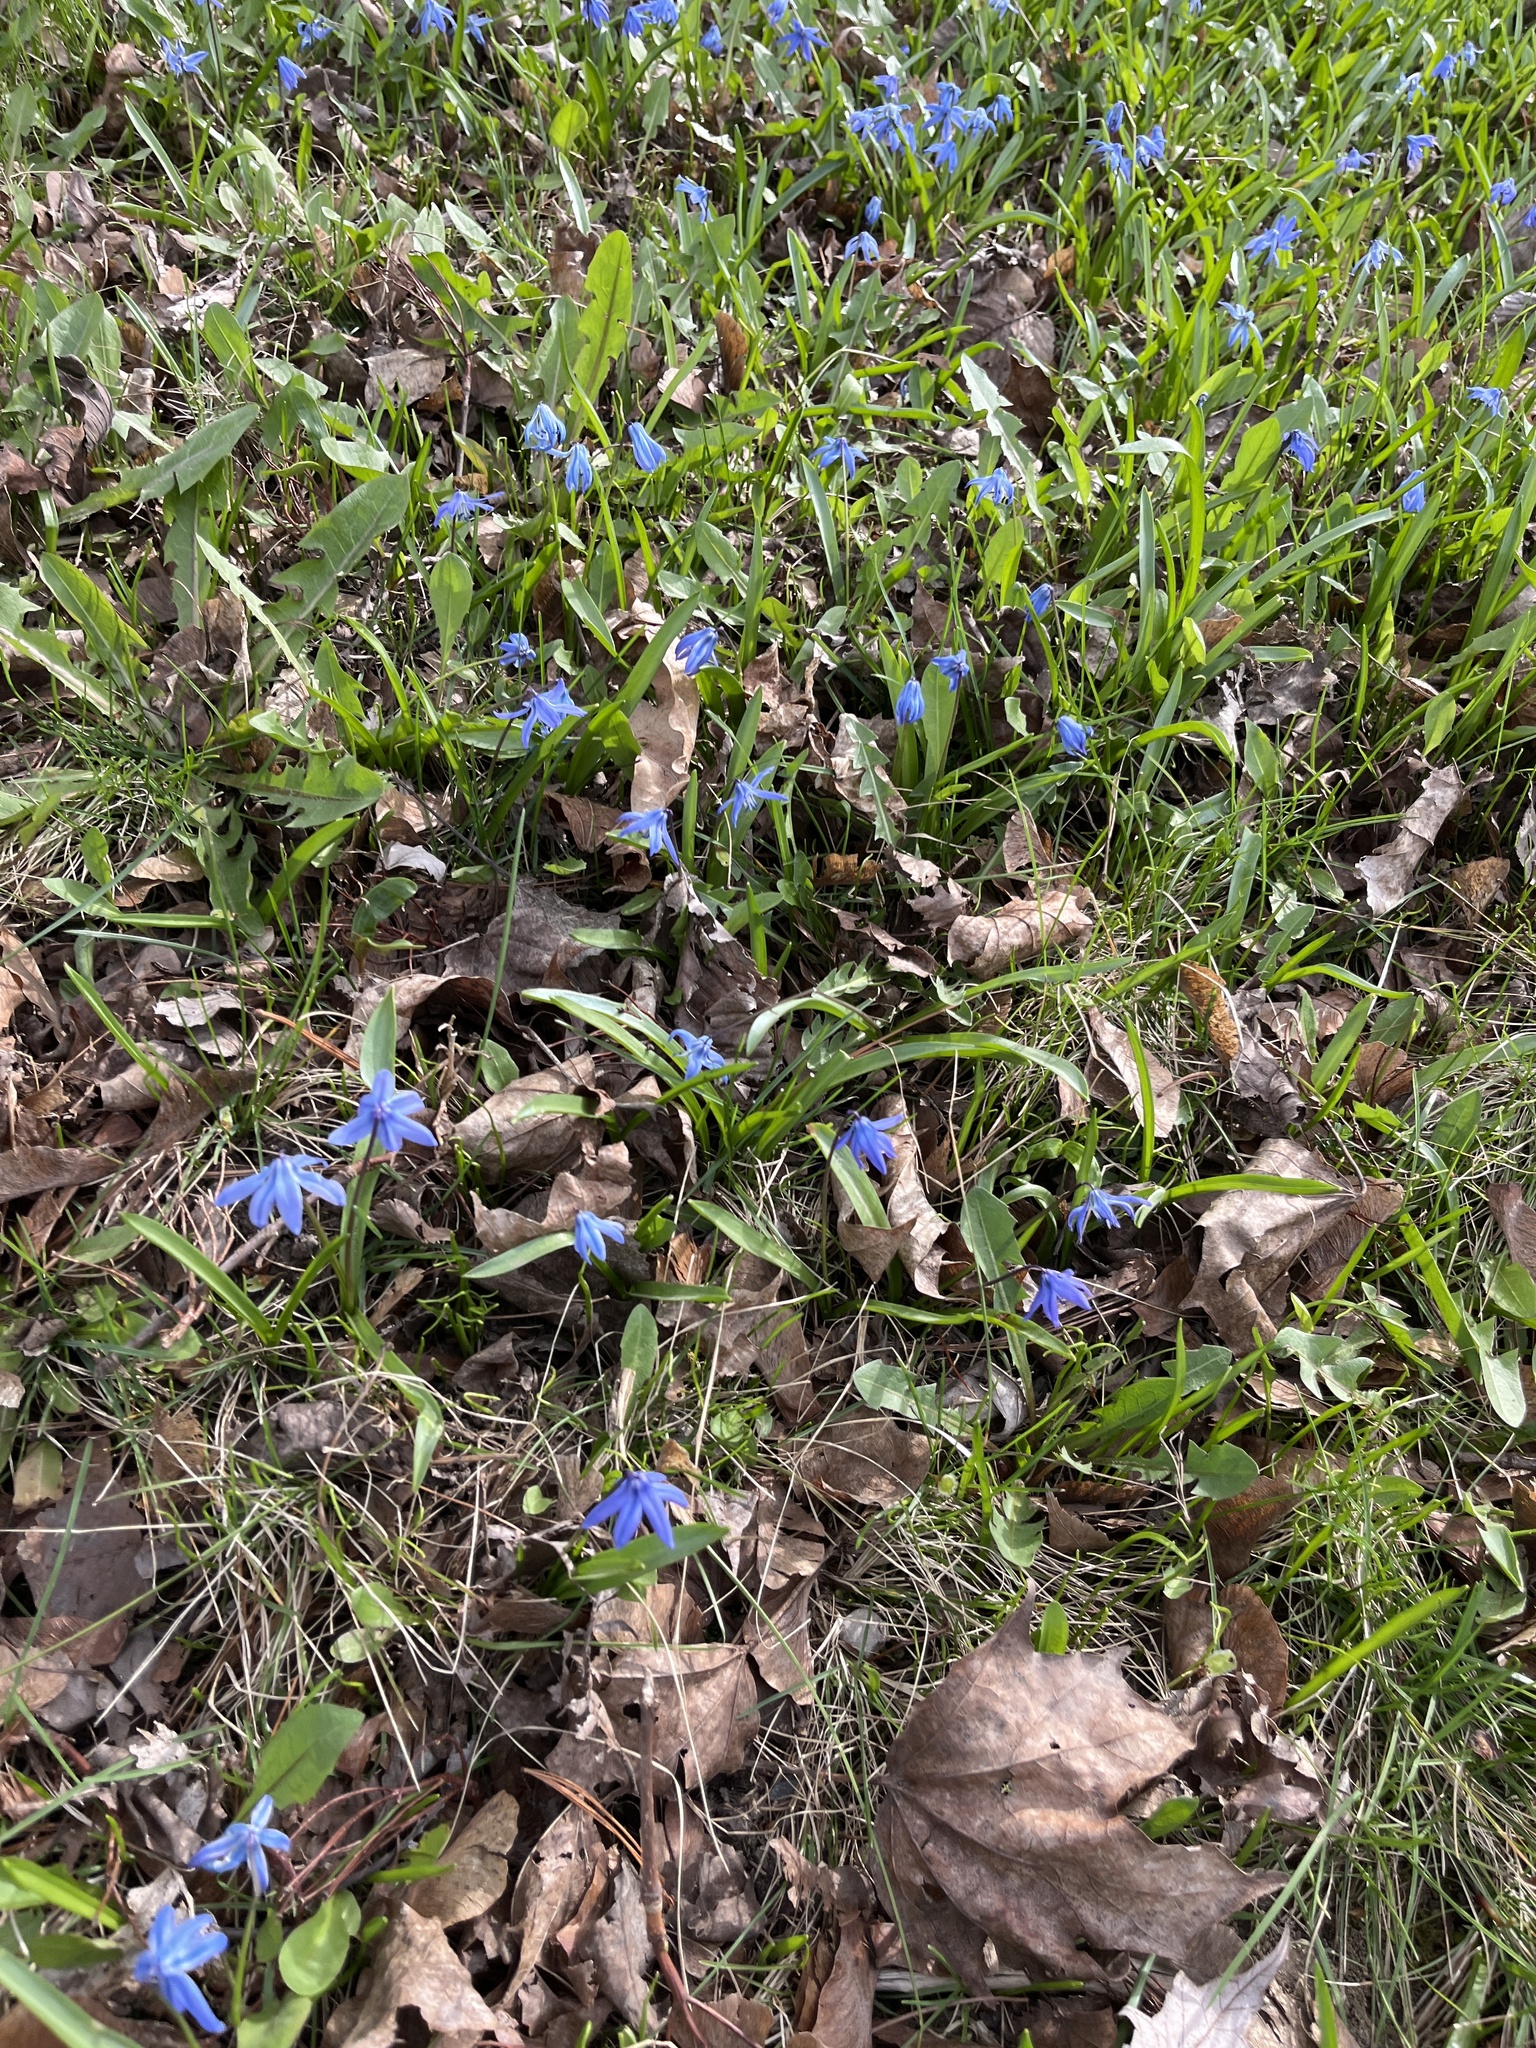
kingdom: Plantae
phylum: Tracheophyta
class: Liliopsida
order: Asparagales
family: Asparagaceae
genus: Scilla
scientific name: Scilla siberica
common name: Siberian squill
